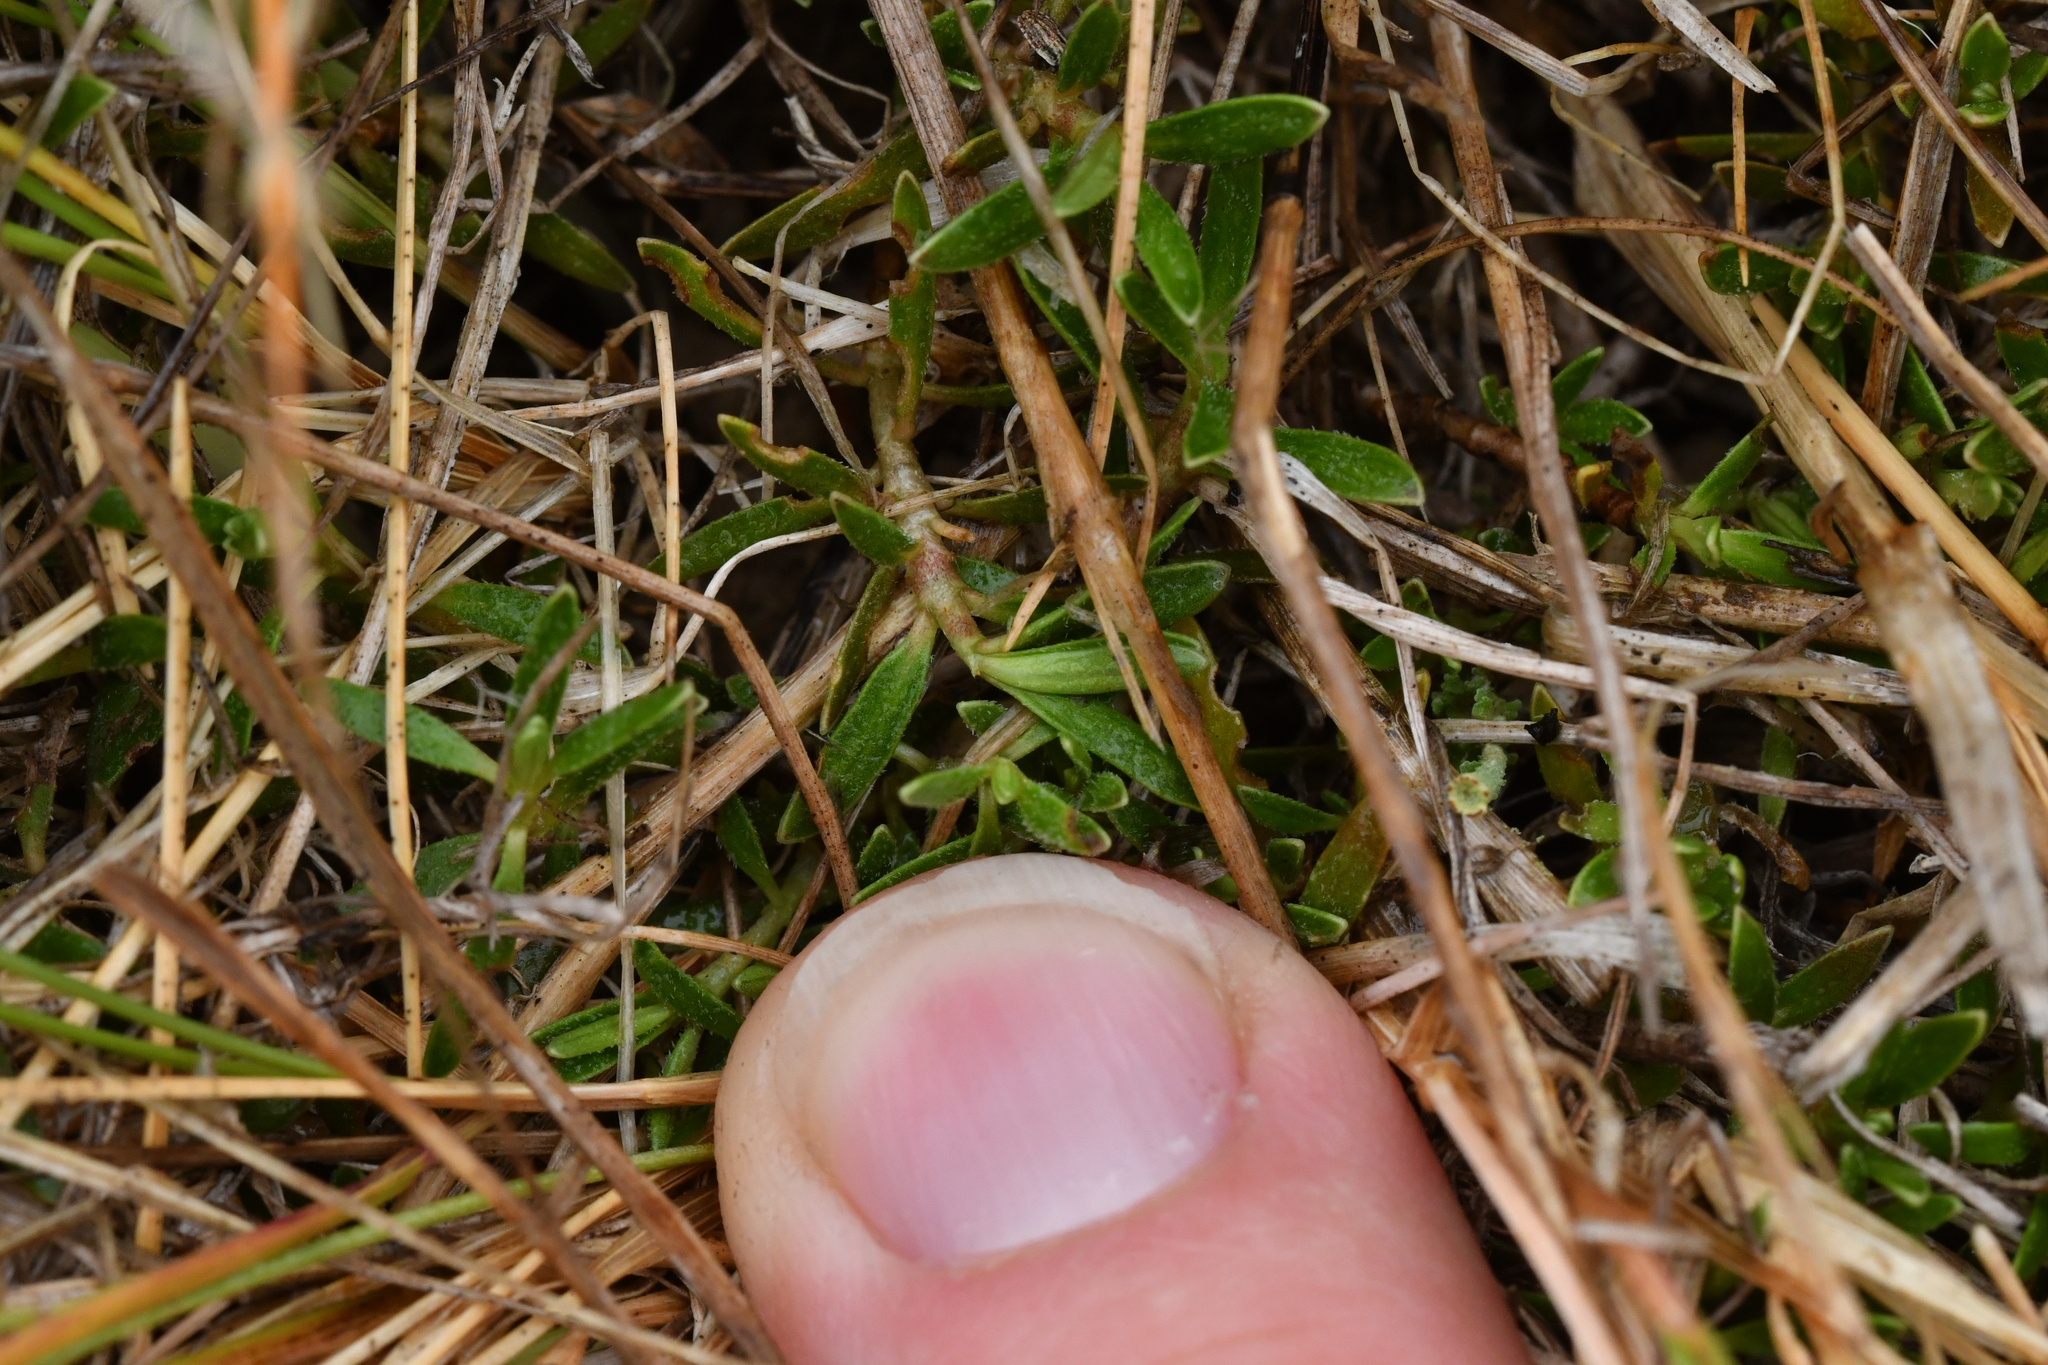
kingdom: Plantae
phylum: Tracheophyta
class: Magnoliopsida
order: Gentianales
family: Rubiaceae
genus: Coprosma
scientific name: Coprosma petriei
